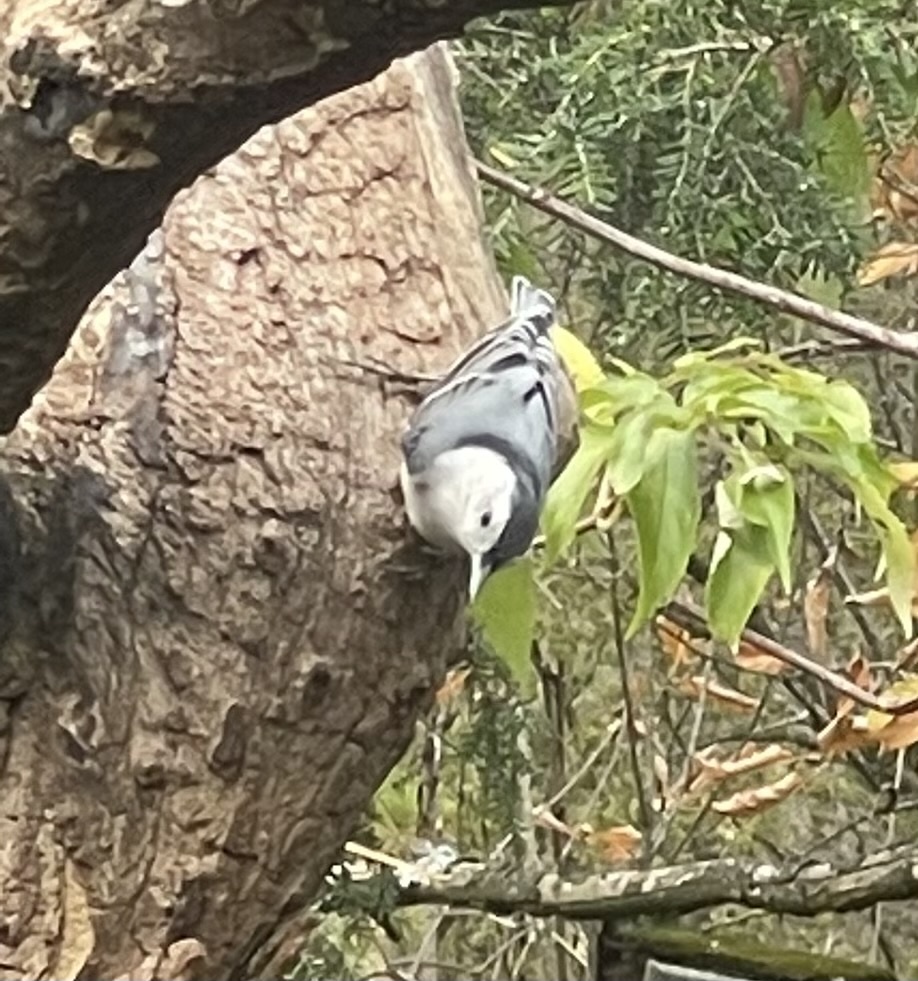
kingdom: Animalia
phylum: Chordata
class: Aves
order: Passeriformes
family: Sittidae
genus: Sitta
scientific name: Sitta carolinensis
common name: White-breasted nuthatch
